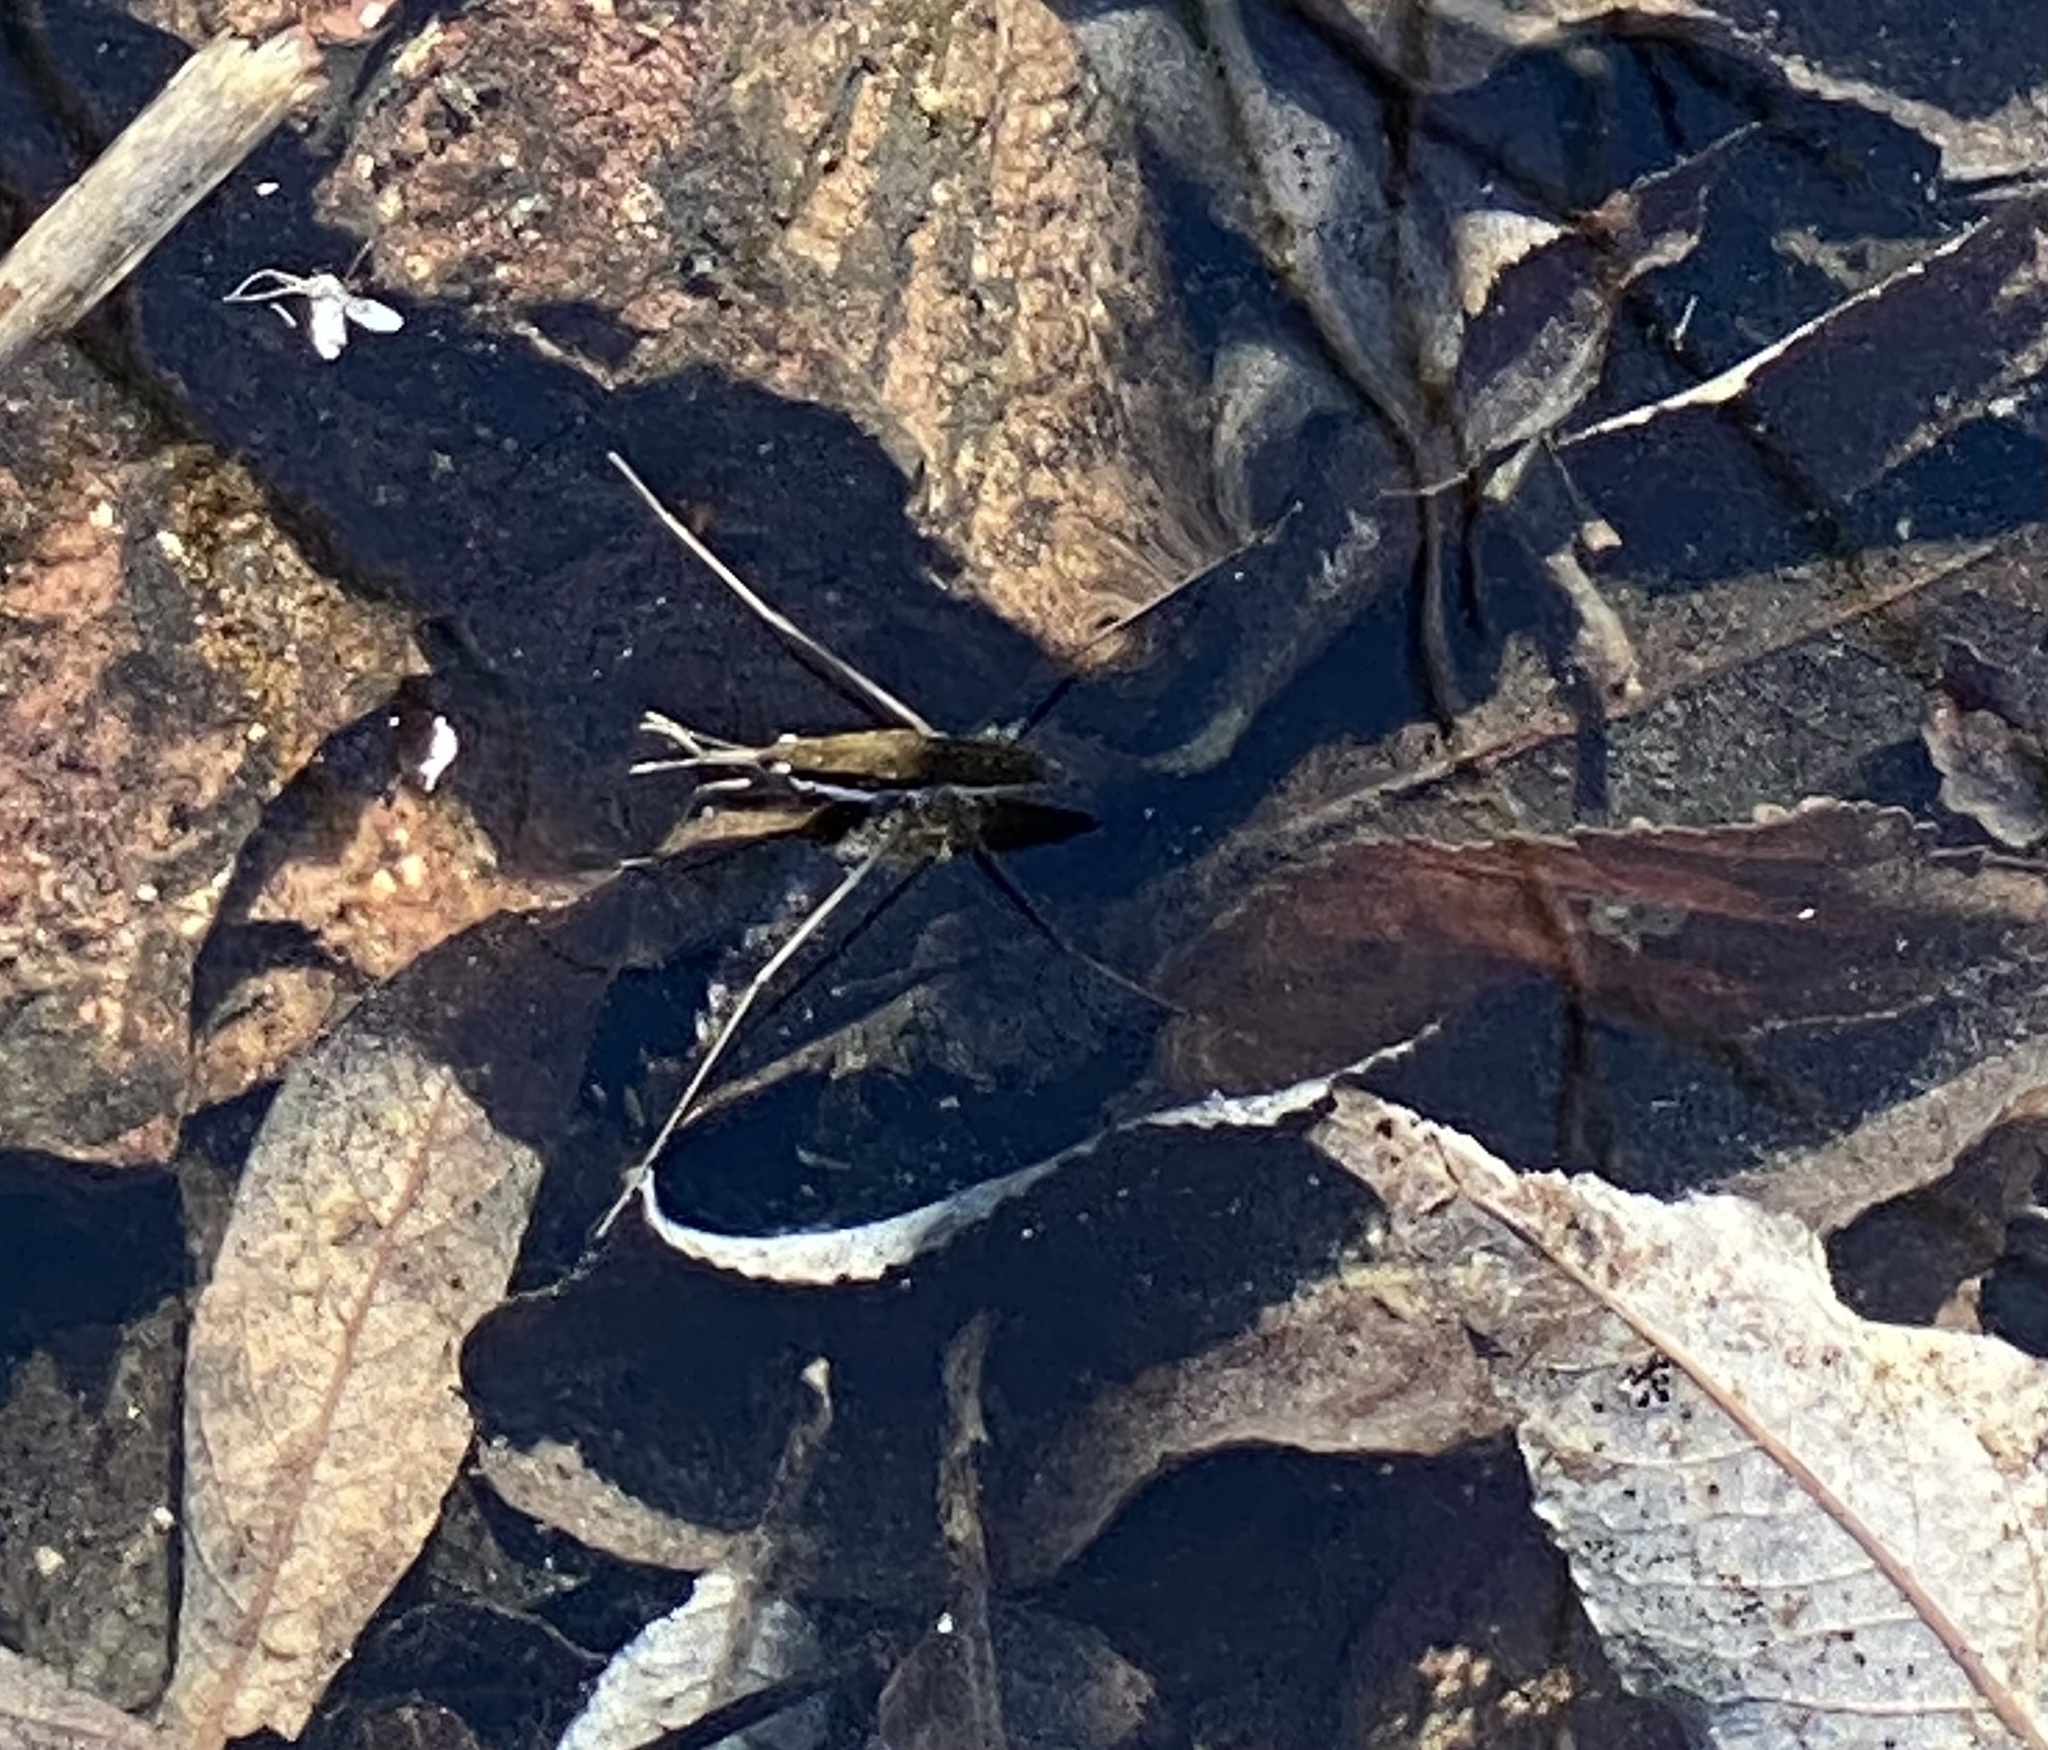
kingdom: Animalia
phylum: Arthropoda
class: Insecta
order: Hemiptera
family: Gerridae
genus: Aquarius
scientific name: Aquarius remigis
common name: Common water strider
